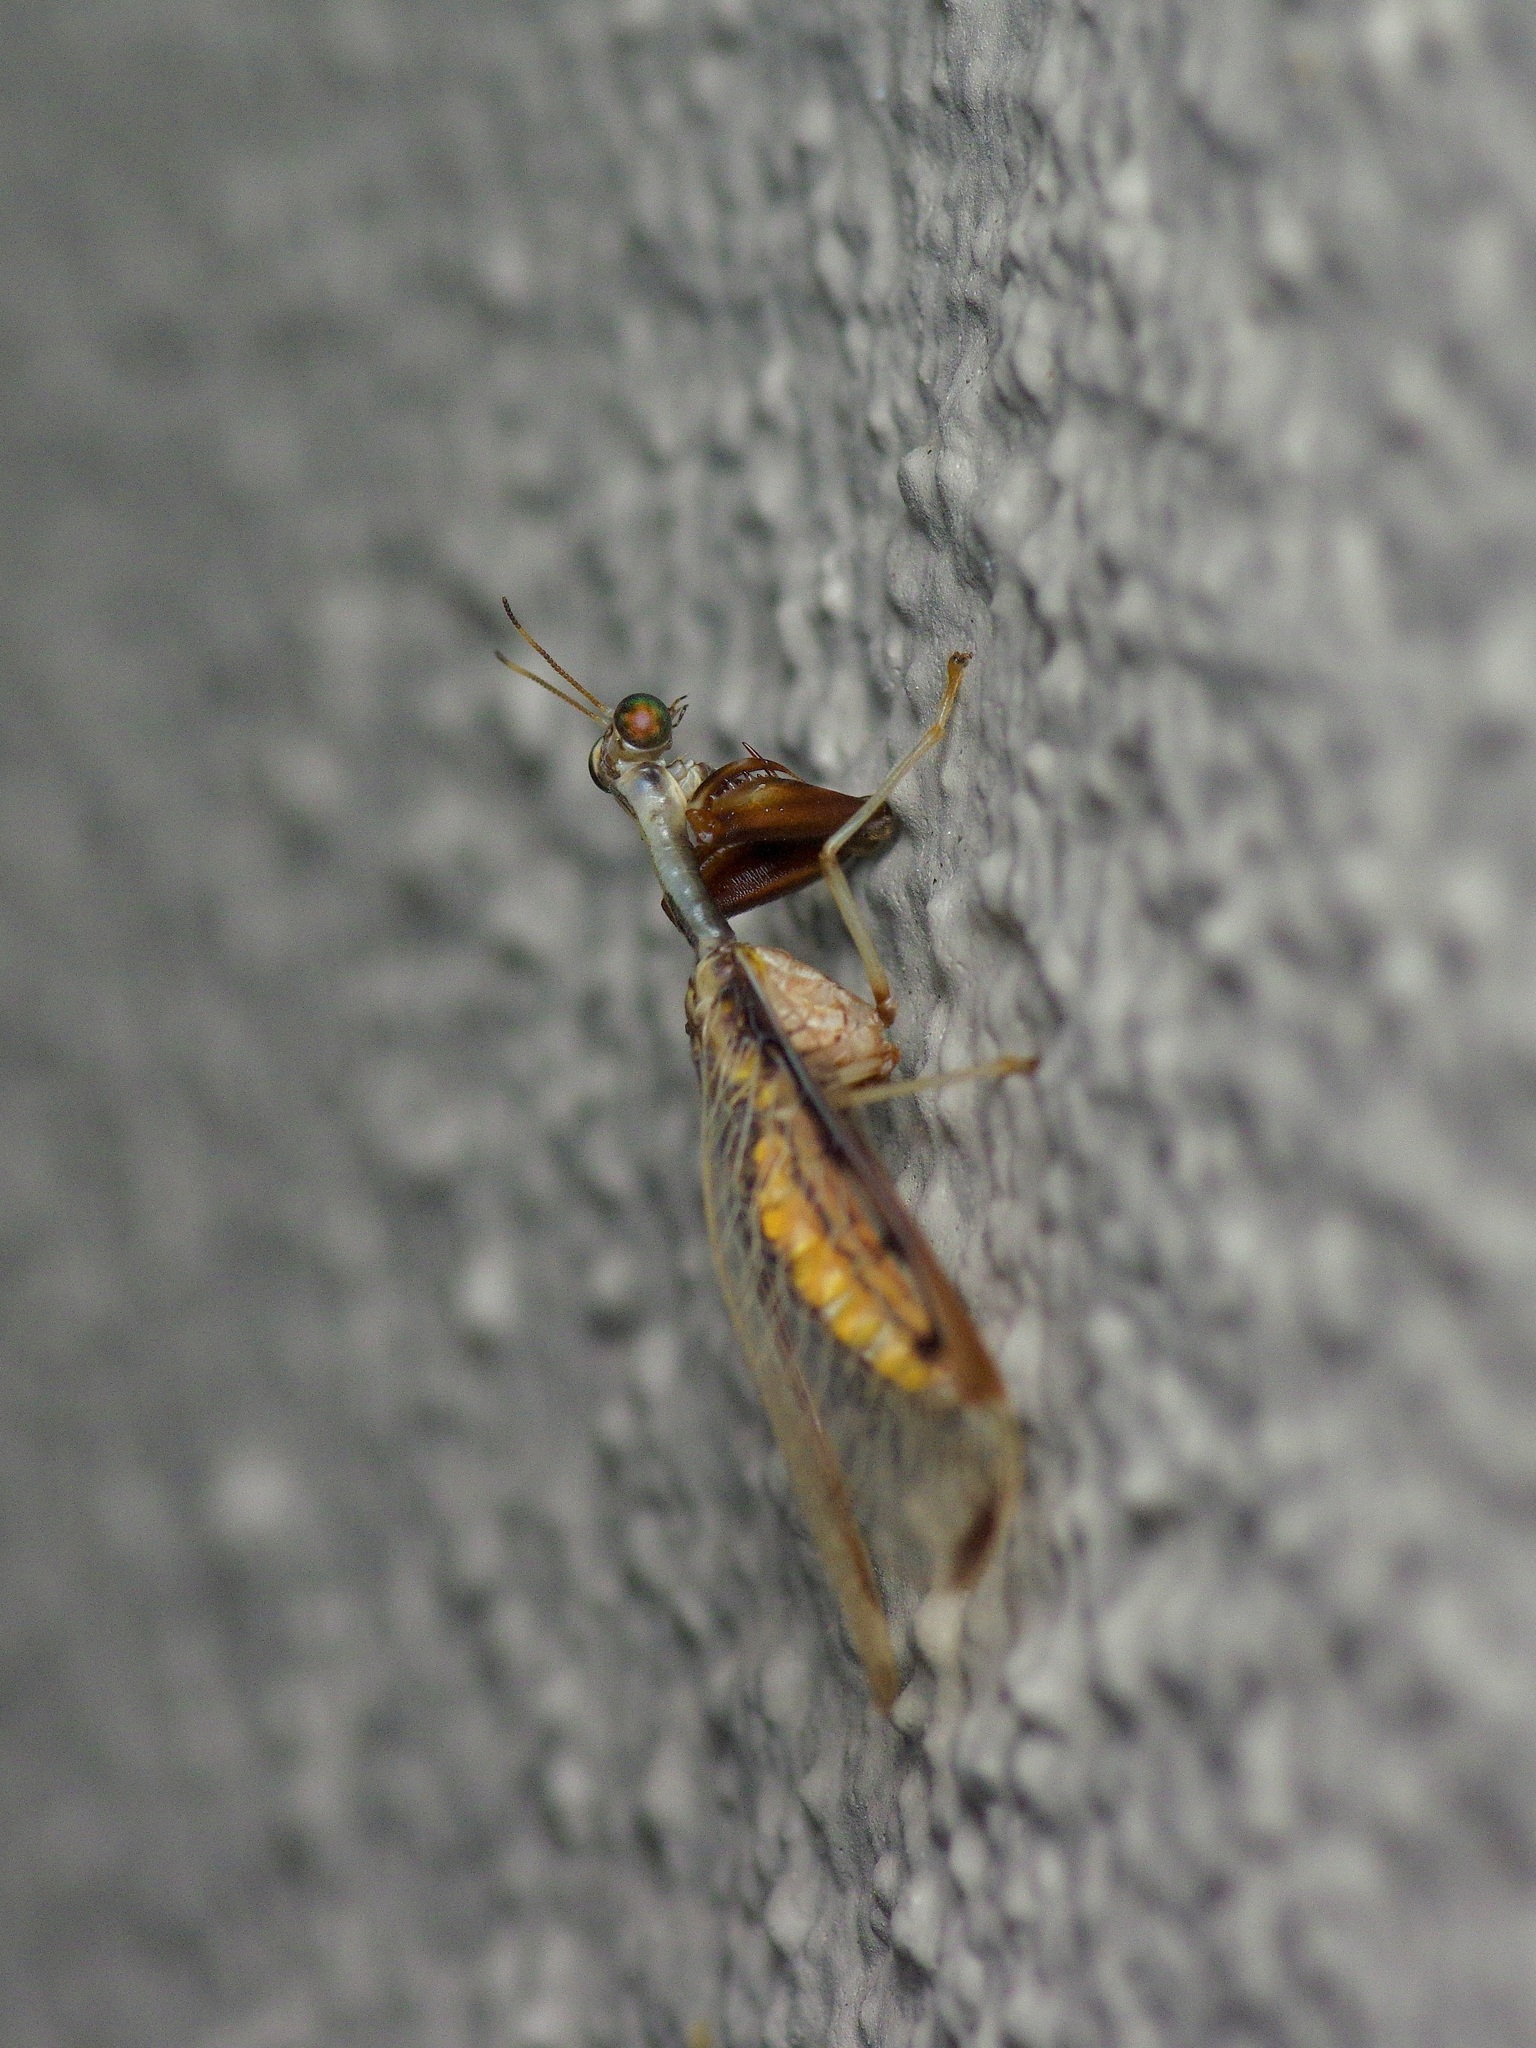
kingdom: Animalia
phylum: Arthropoda
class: Insecta
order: Neuroptera
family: Mantispidae
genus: Dicromantispa
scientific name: Dicromantispa interrupta
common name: Four-spotted mantidfly
